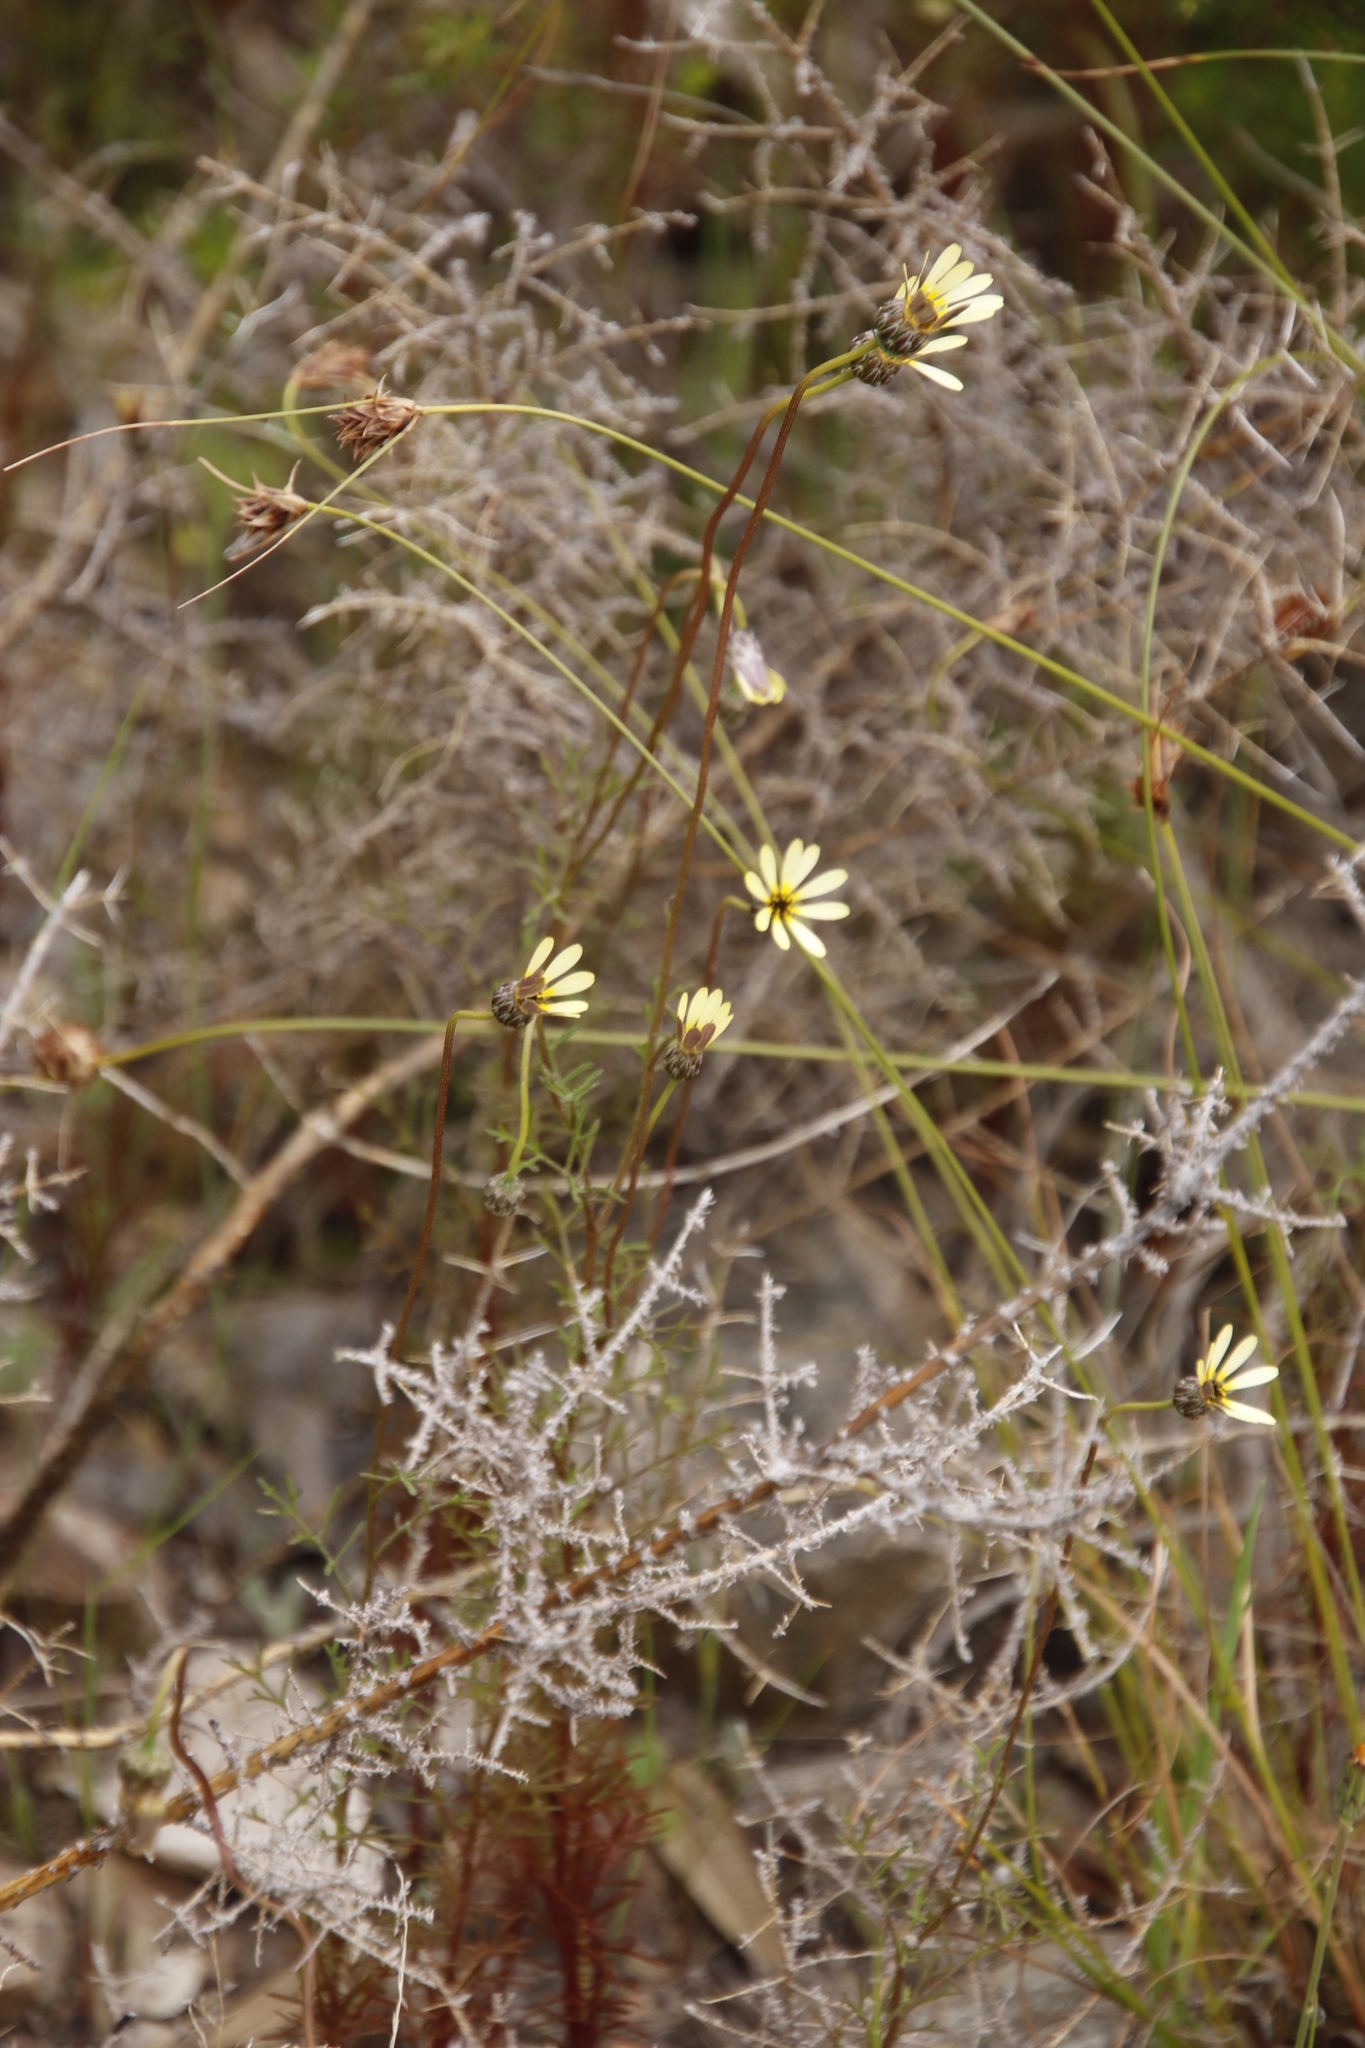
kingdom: Plantae
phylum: Tracheophyta
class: Magnoliopsida
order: Asterales
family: Asteraceae
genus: Ursinia
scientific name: Ursinia anthemoides
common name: Ursinia
